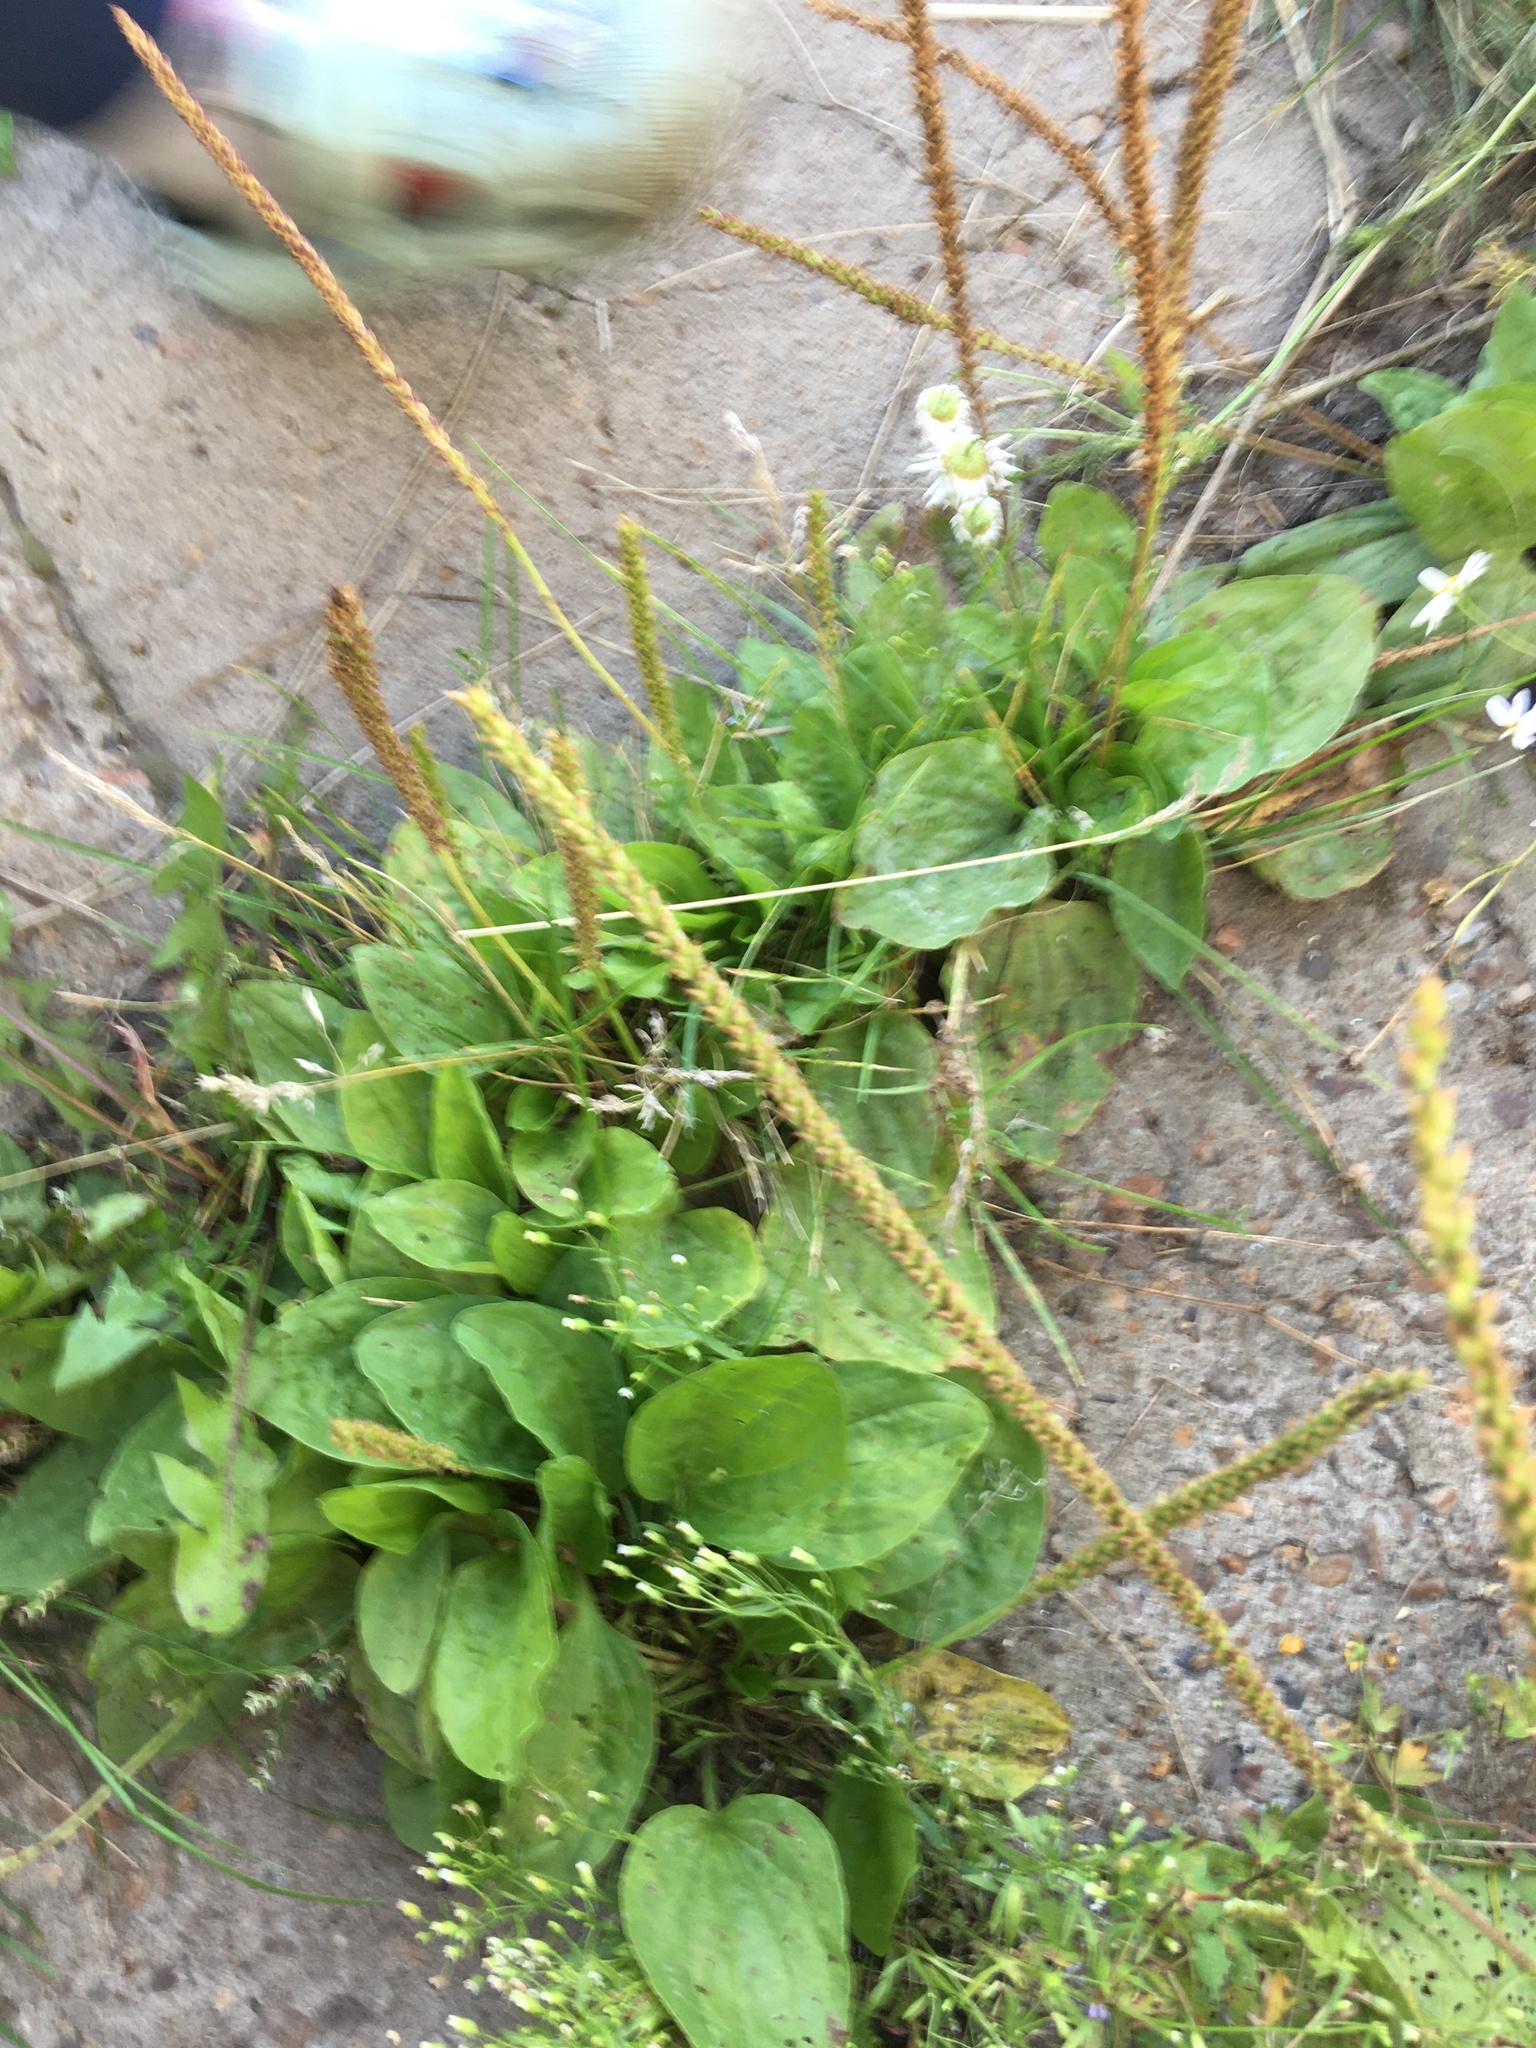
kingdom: Plantae
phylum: Tracheophyta
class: Magnoliopsida
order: Lamiales
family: Plantaginaceae
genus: Plantago
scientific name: Plantago major
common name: Common plantain
